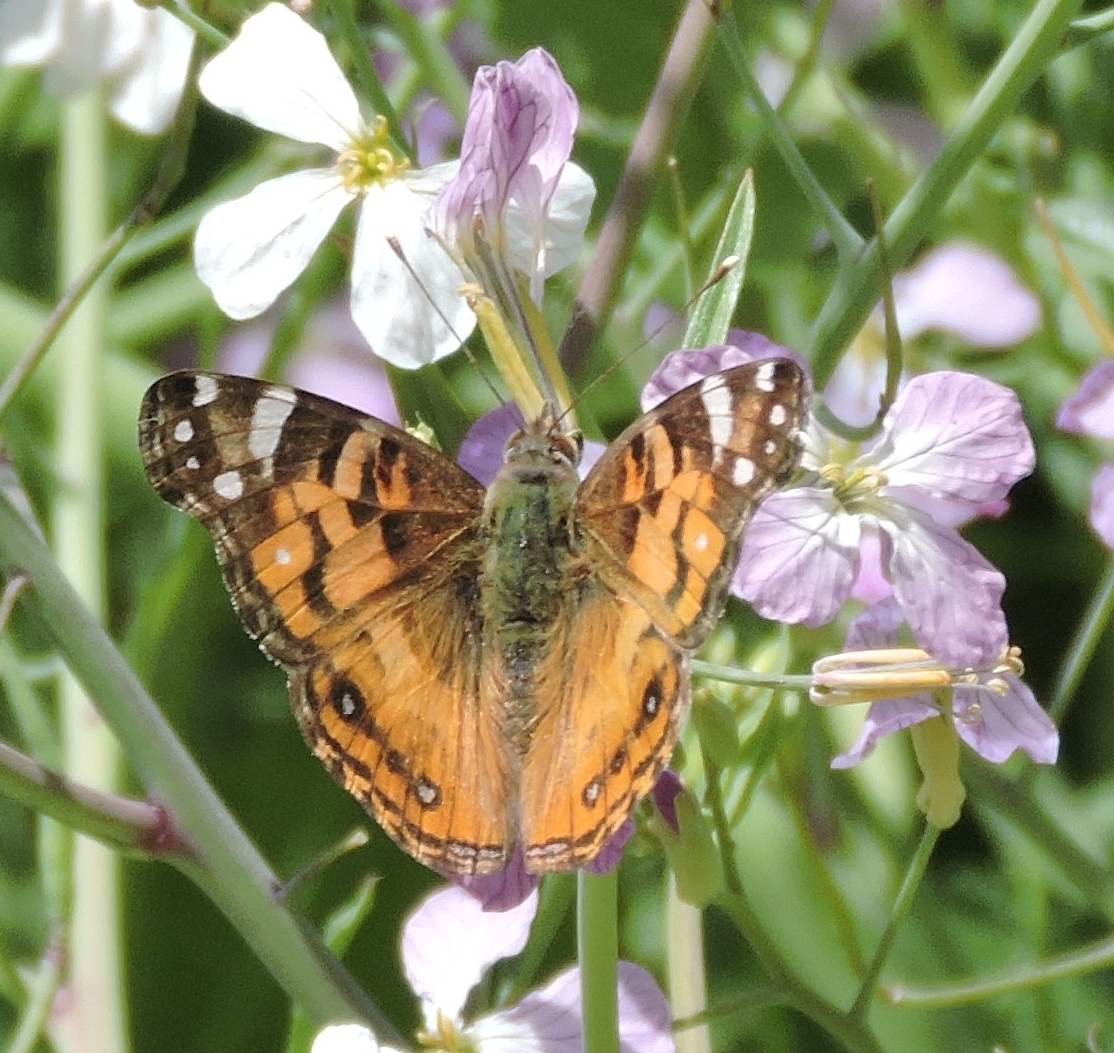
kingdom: Animalia
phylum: Arthropoda
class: Insecta
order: Lepidoptera
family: Nymphalidae
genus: Vanessa
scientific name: Vanessa virginiensis
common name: American lady
